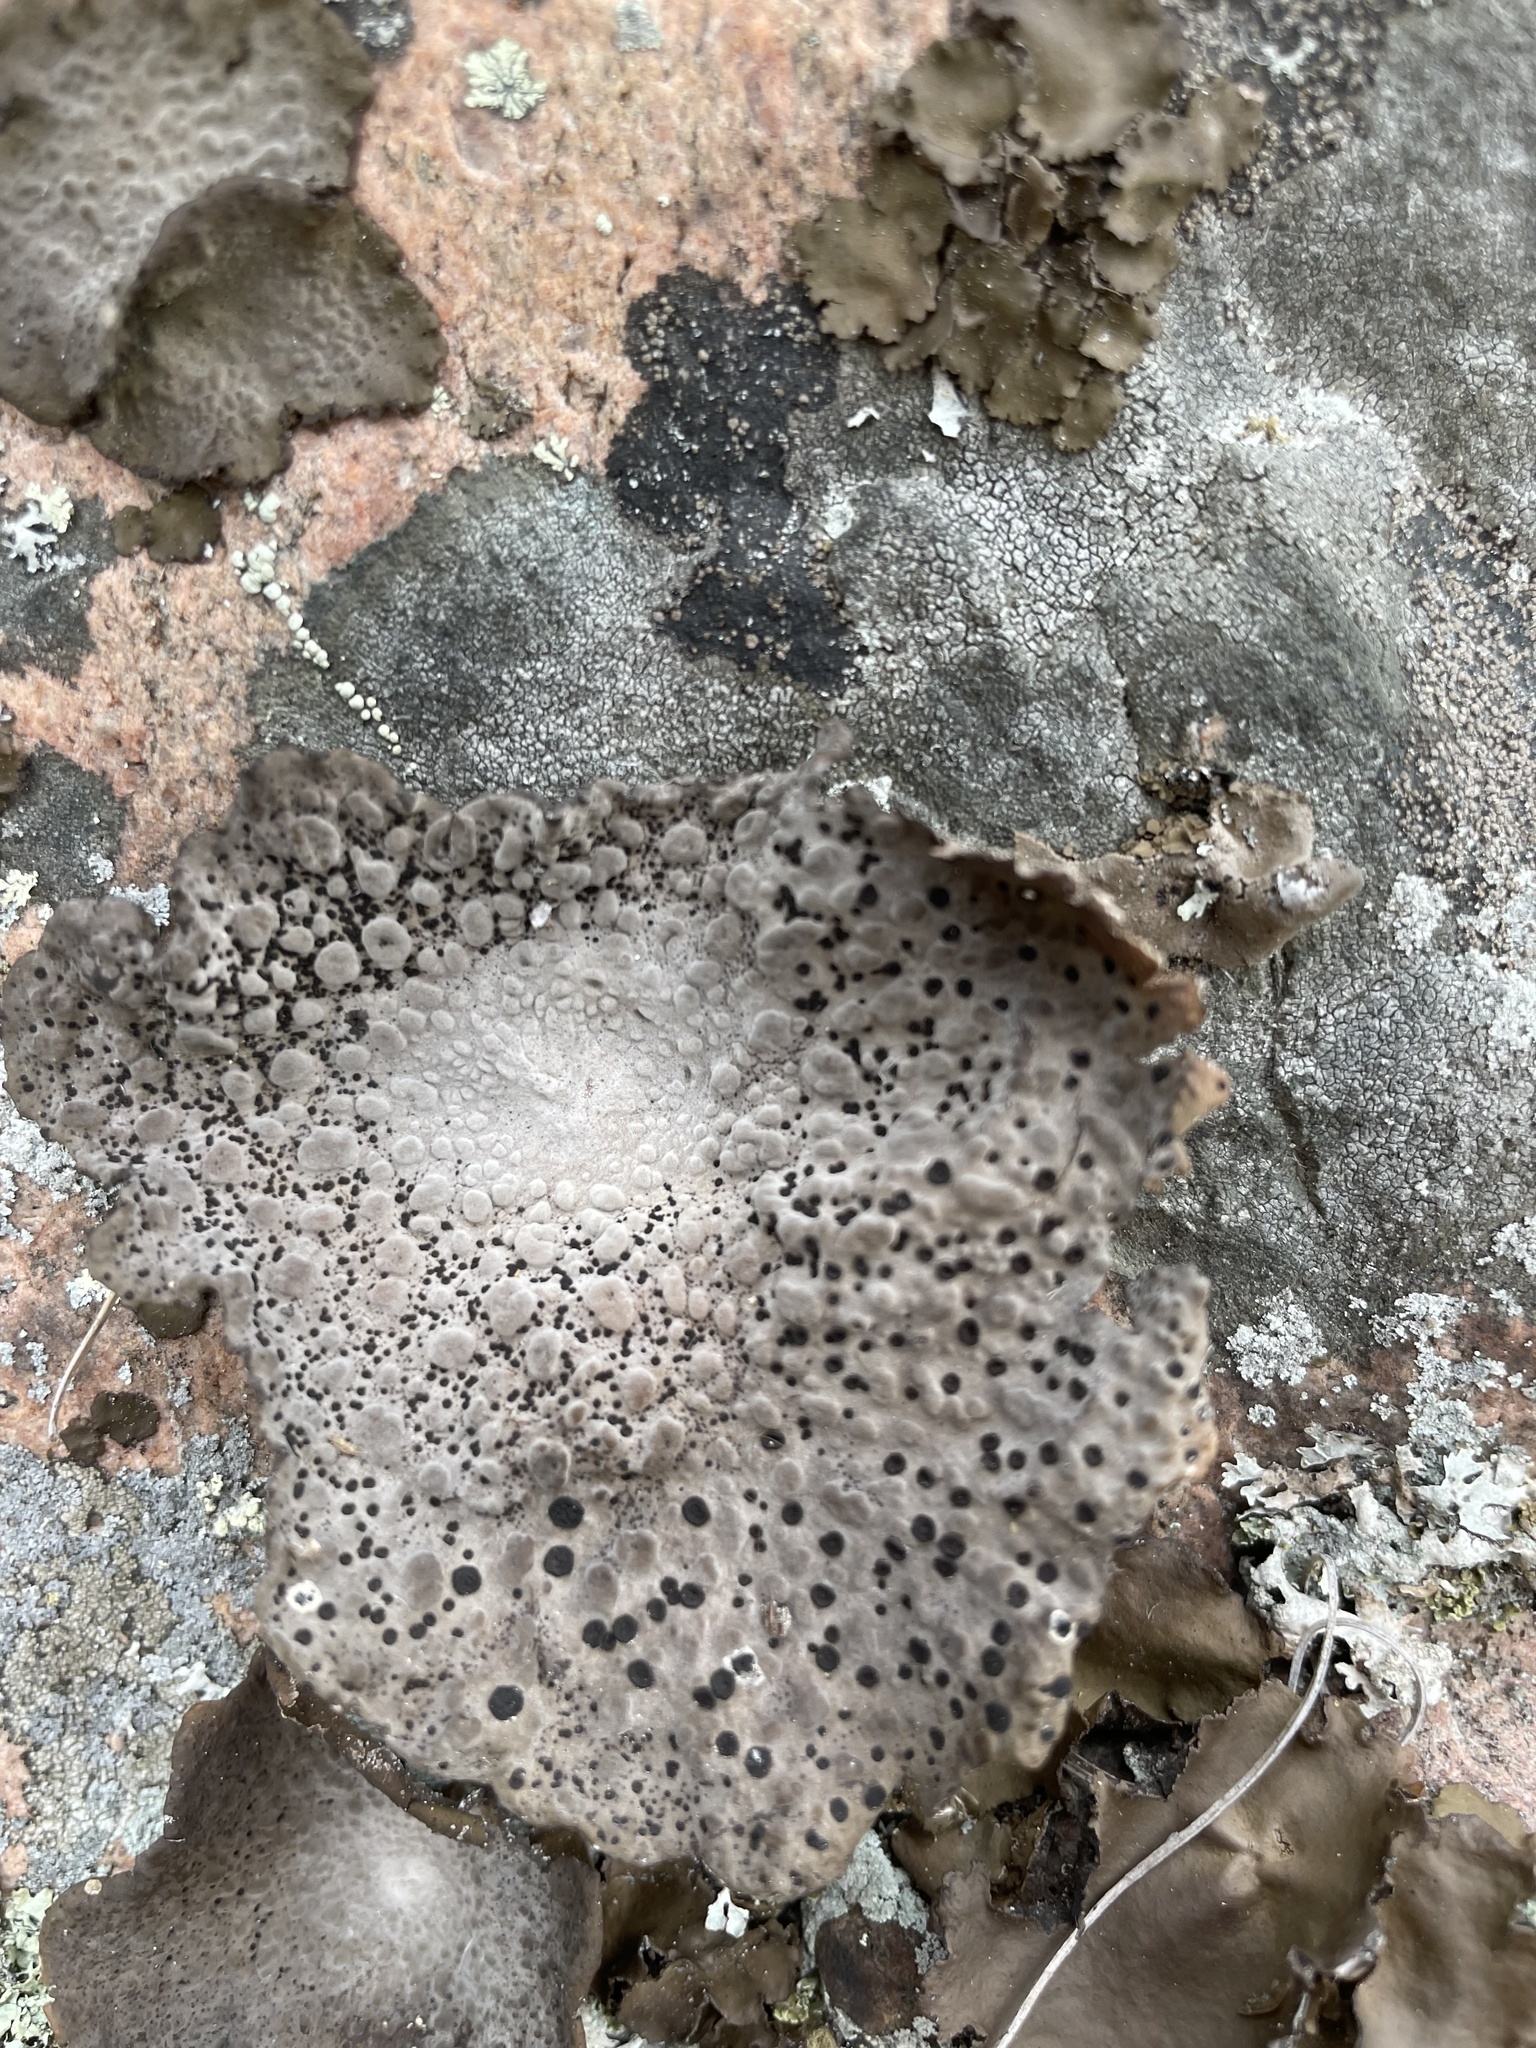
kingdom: Fungi
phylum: Ascomycota
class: Lecanoromycetes
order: Umbilicariales
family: Umbilicariaceae
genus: Lasallia
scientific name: Lasallia papulosa
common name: Common toadskin lichen
